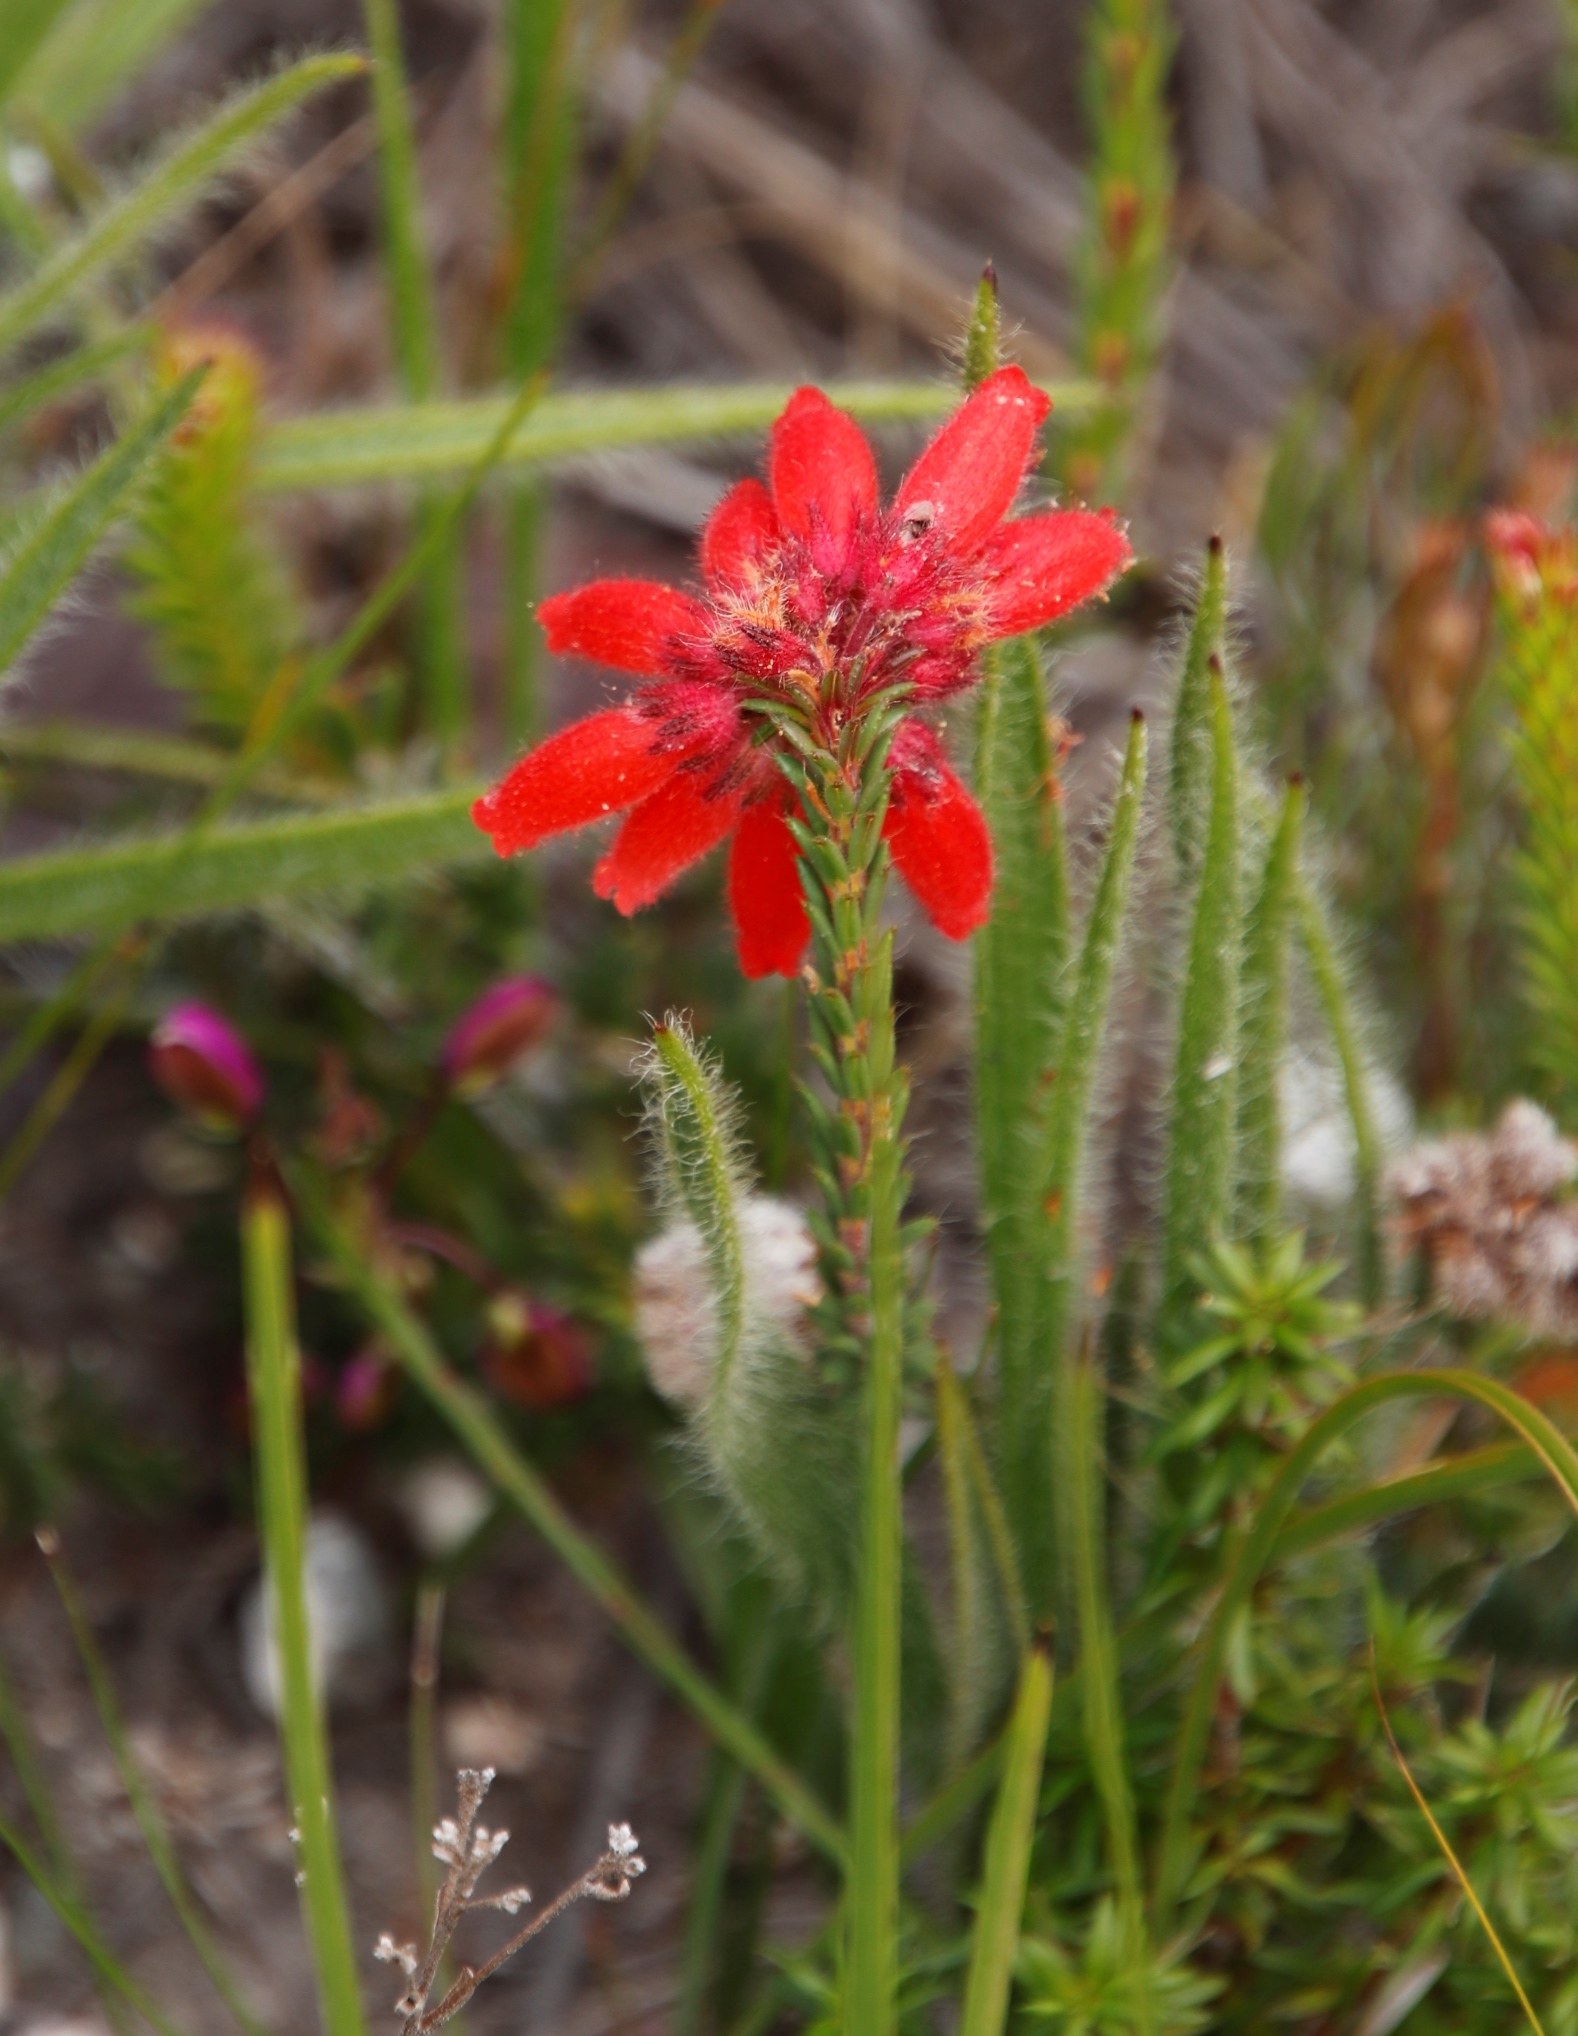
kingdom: Plantae
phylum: Tracheophyta
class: Magnoliopsida
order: Ericales
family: Ericaceae
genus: Erica
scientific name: Erica cerinthoides
